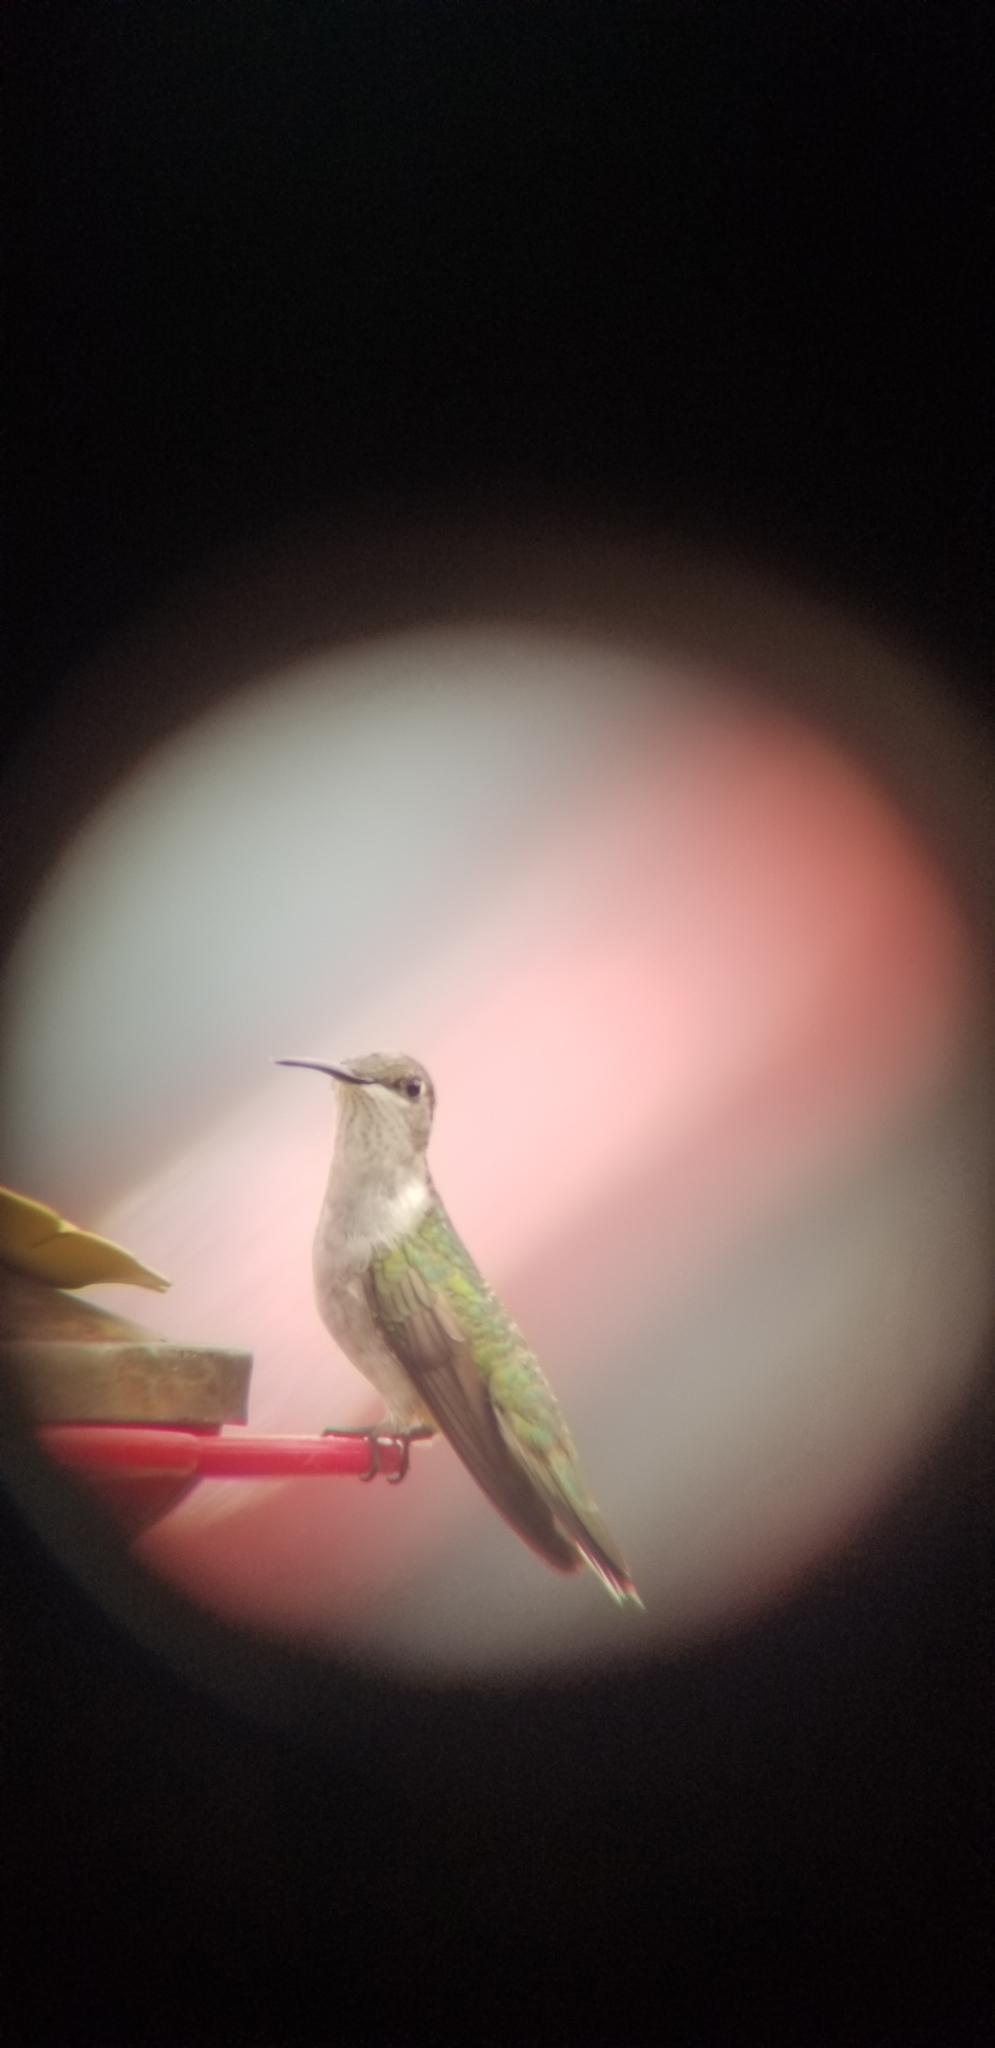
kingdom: Animalia
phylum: Chordata
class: Aves
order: Apodiformes
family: Trochilidae
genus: Archilochus
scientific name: Archilochus colubris
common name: Ruby-throated hummingbird
